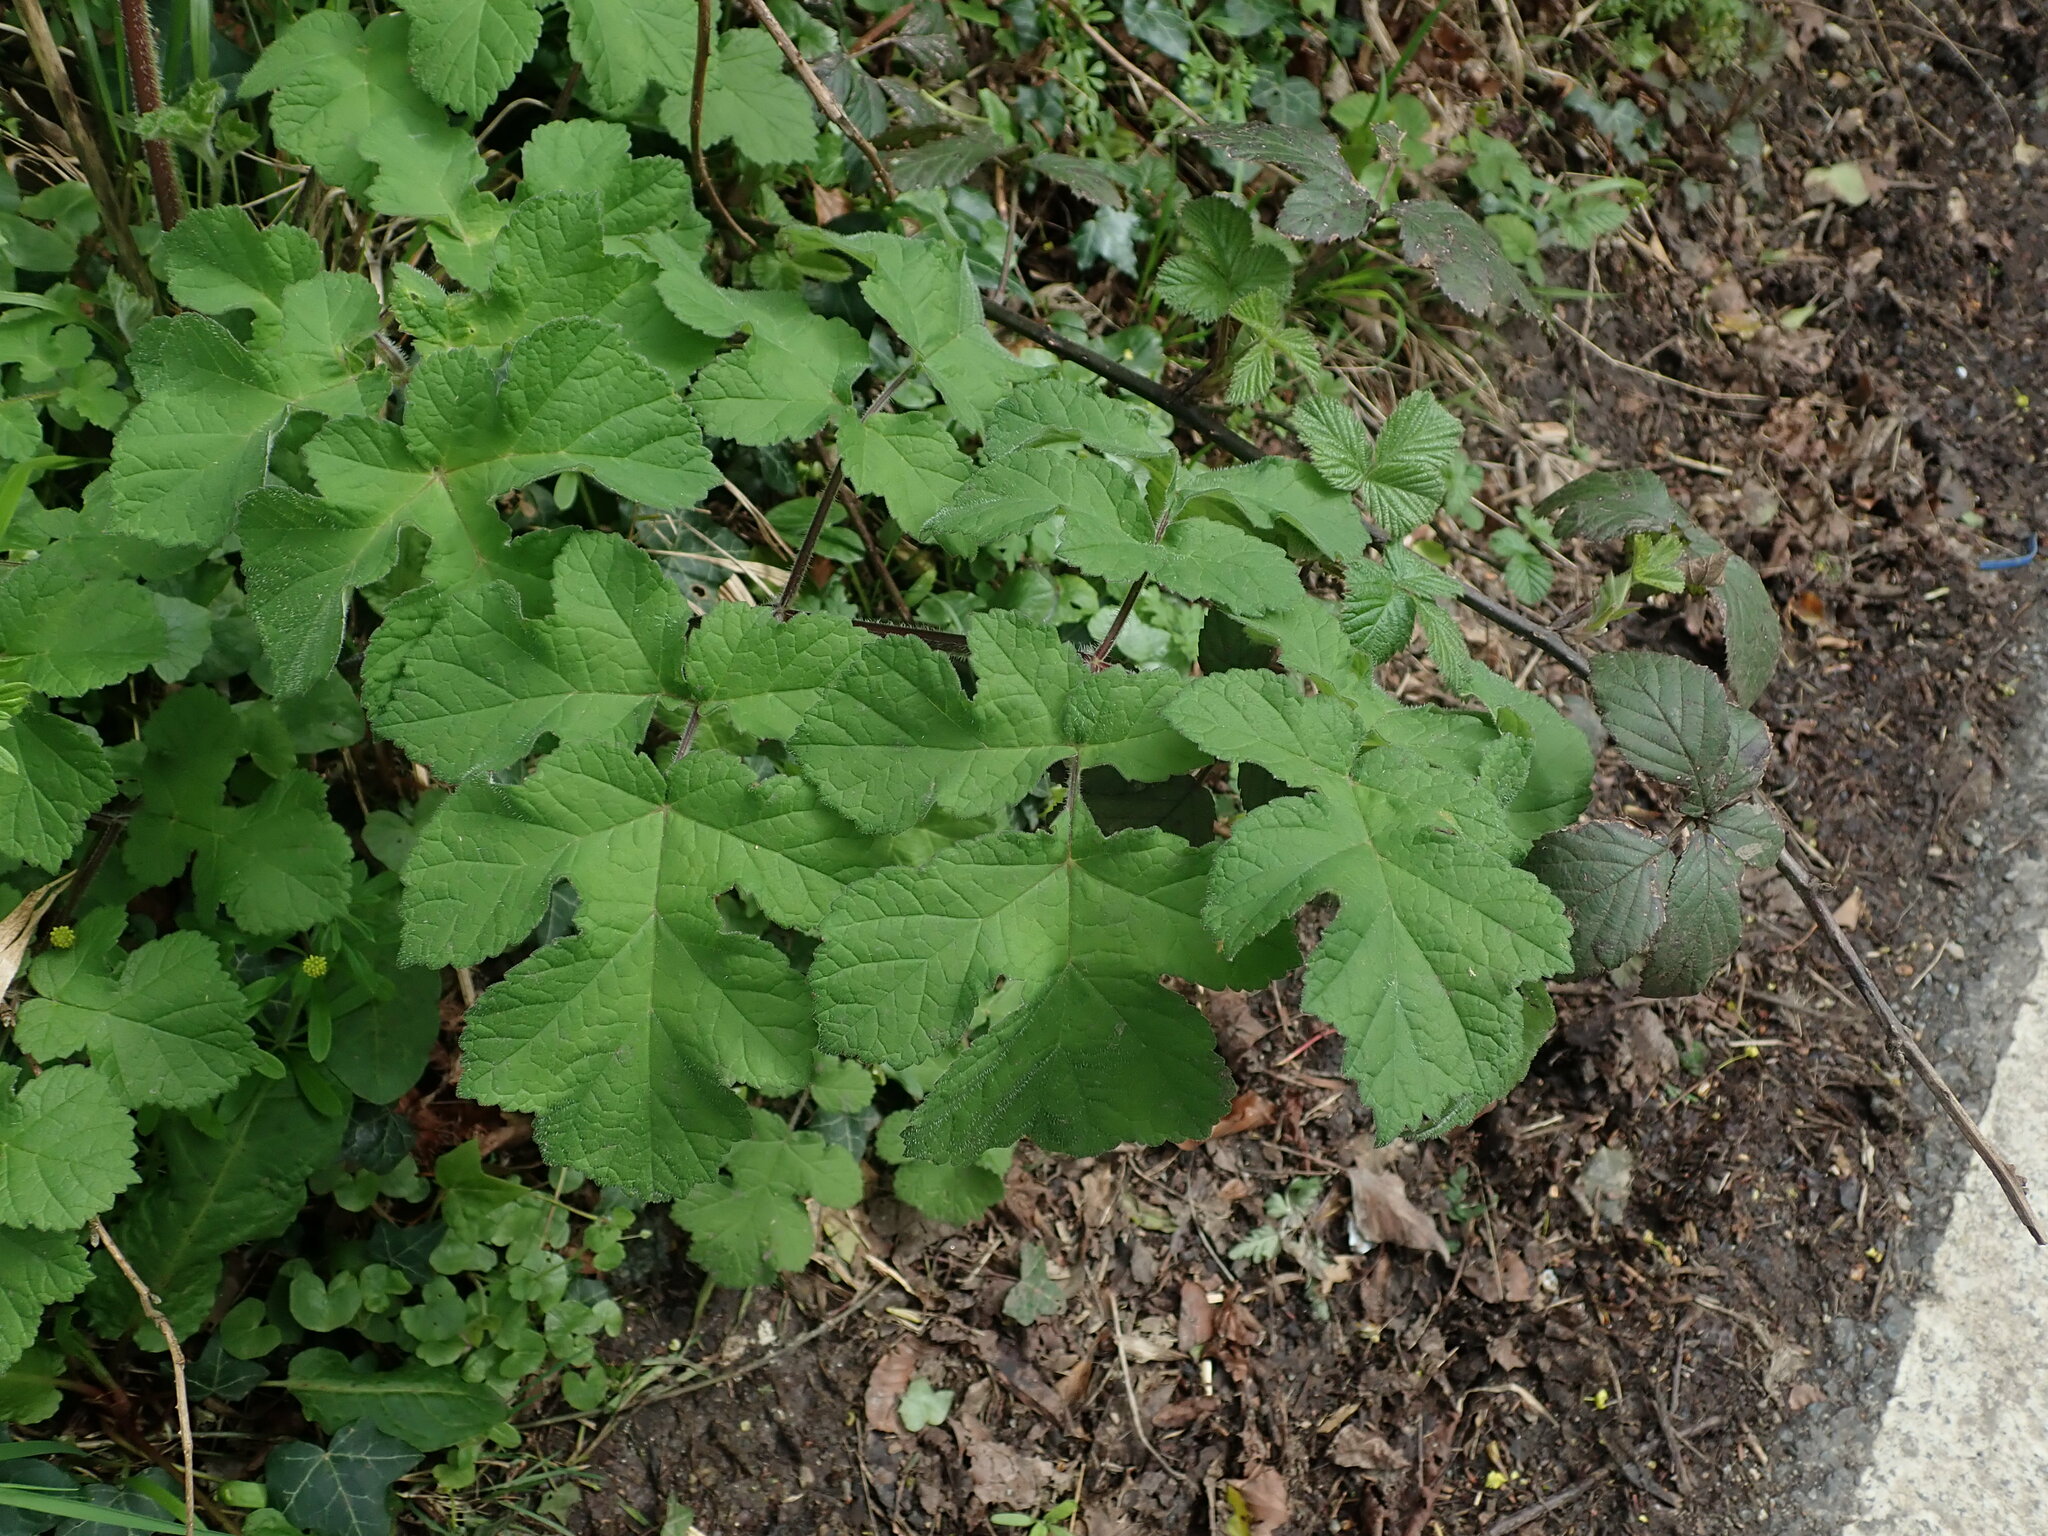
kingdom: Plantae
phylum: Tracheophyta
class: Magnoliopsida
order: Apiales
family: Apiaceae
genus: Heracleum
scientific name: Heracleum sphondylium
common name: Hogweed
